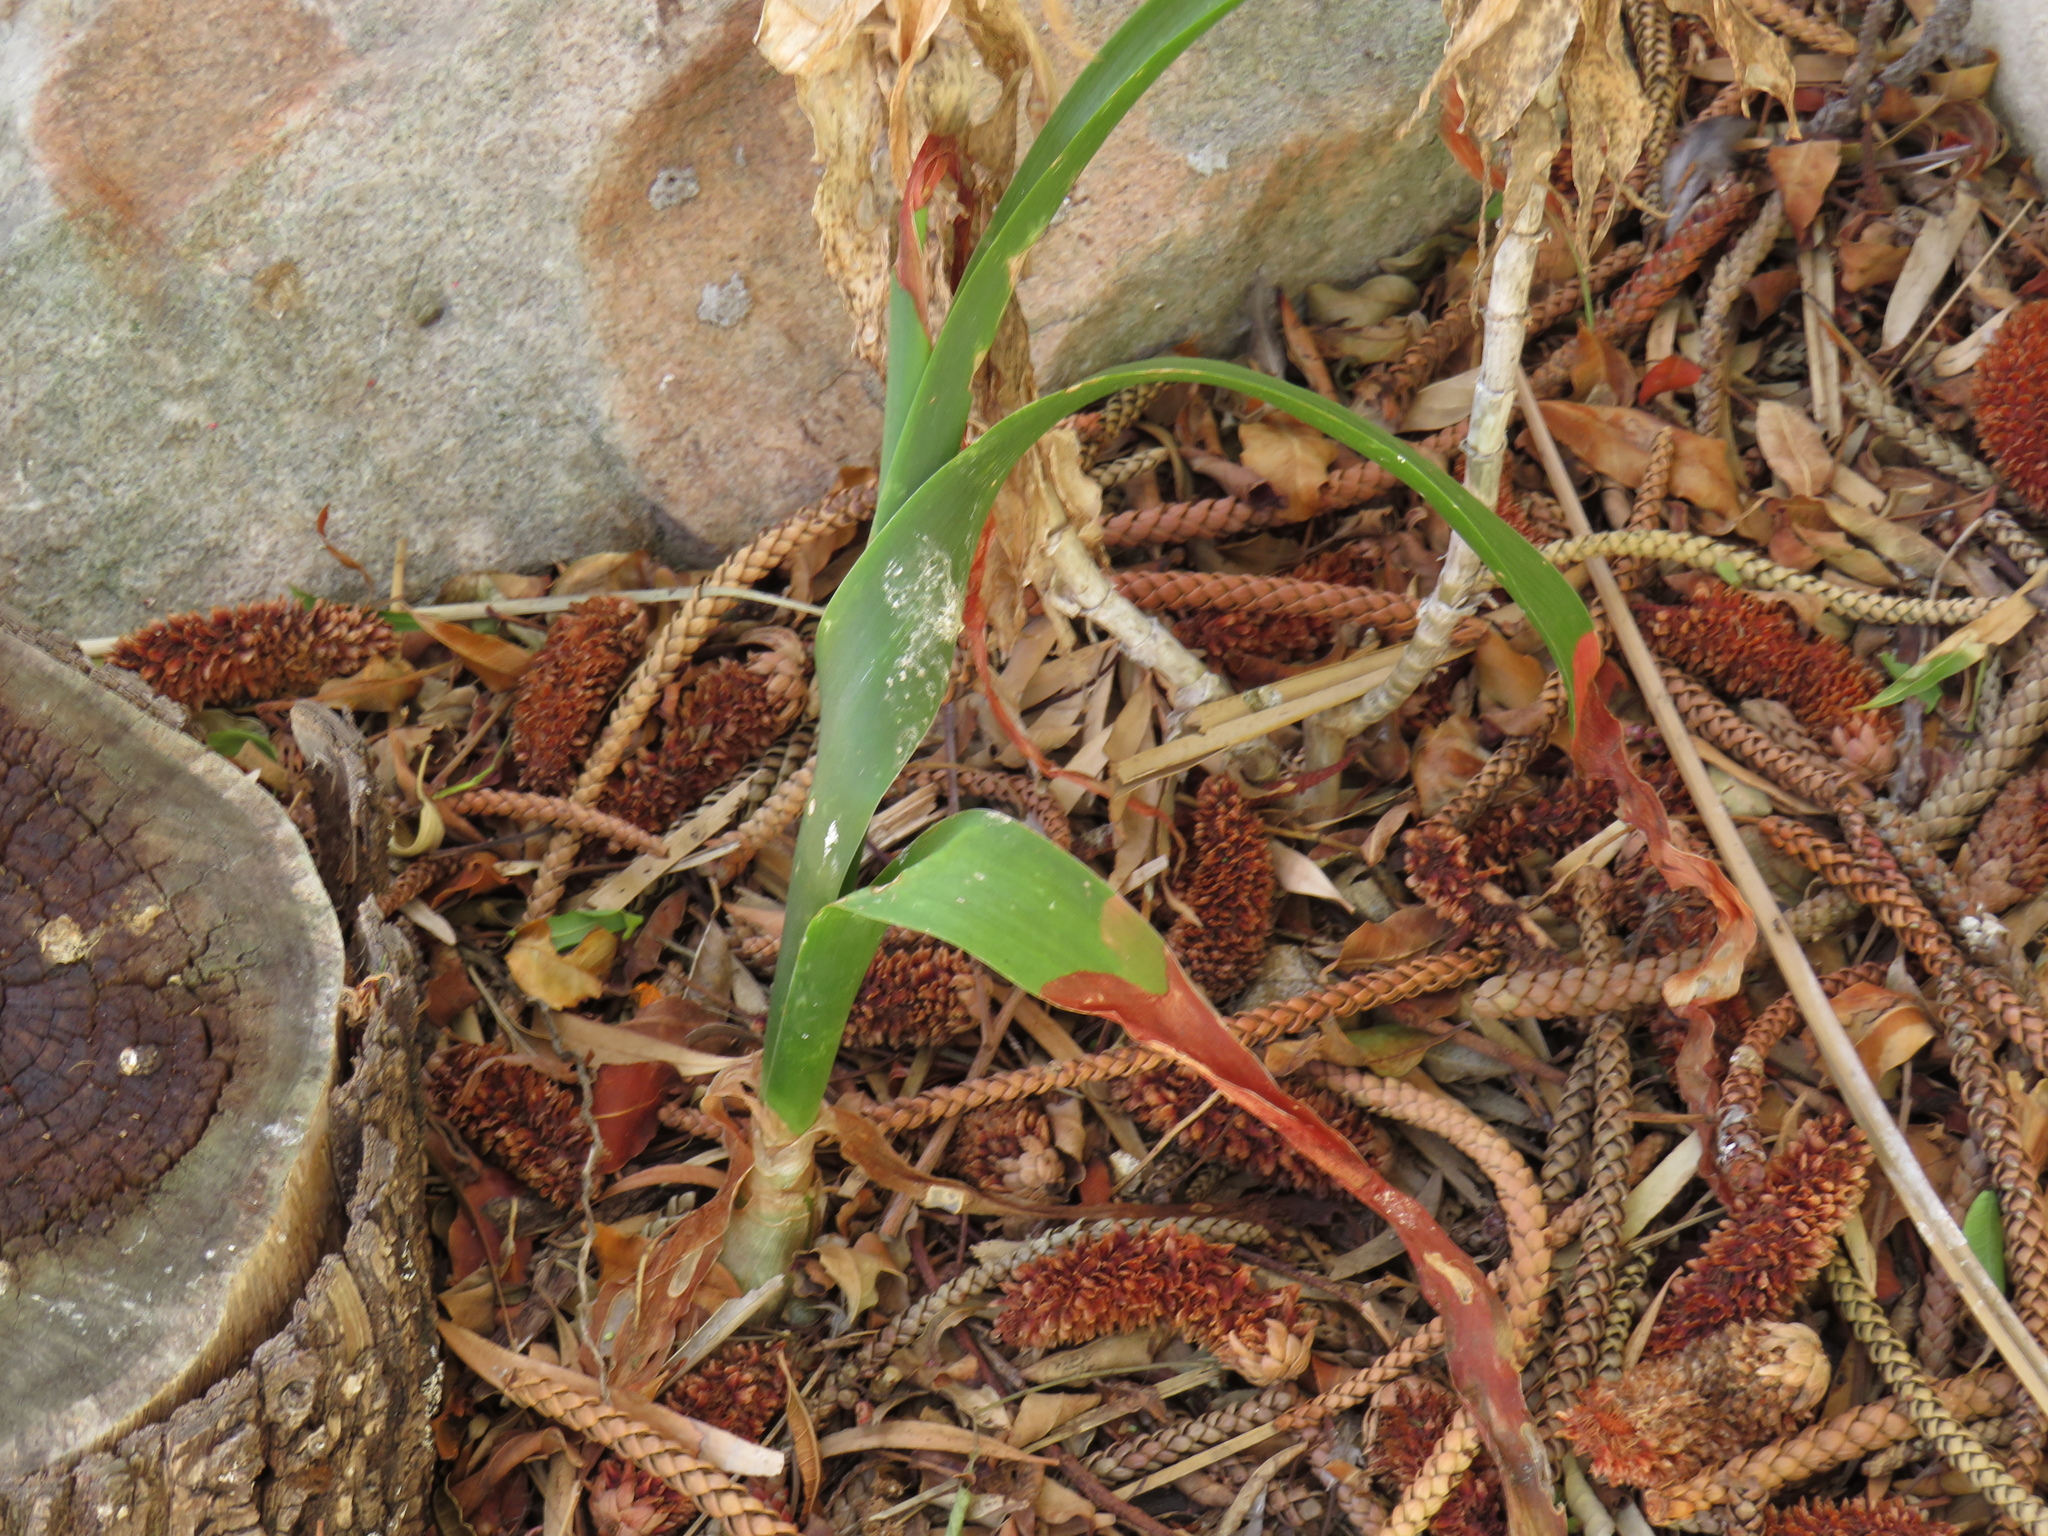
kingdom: Plantae
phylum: Tracheophyta
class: Liliopsida
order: Asparagales
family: Asparagaceae
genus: Albuca
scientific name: Albuca bracteata
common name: Sea-onion
